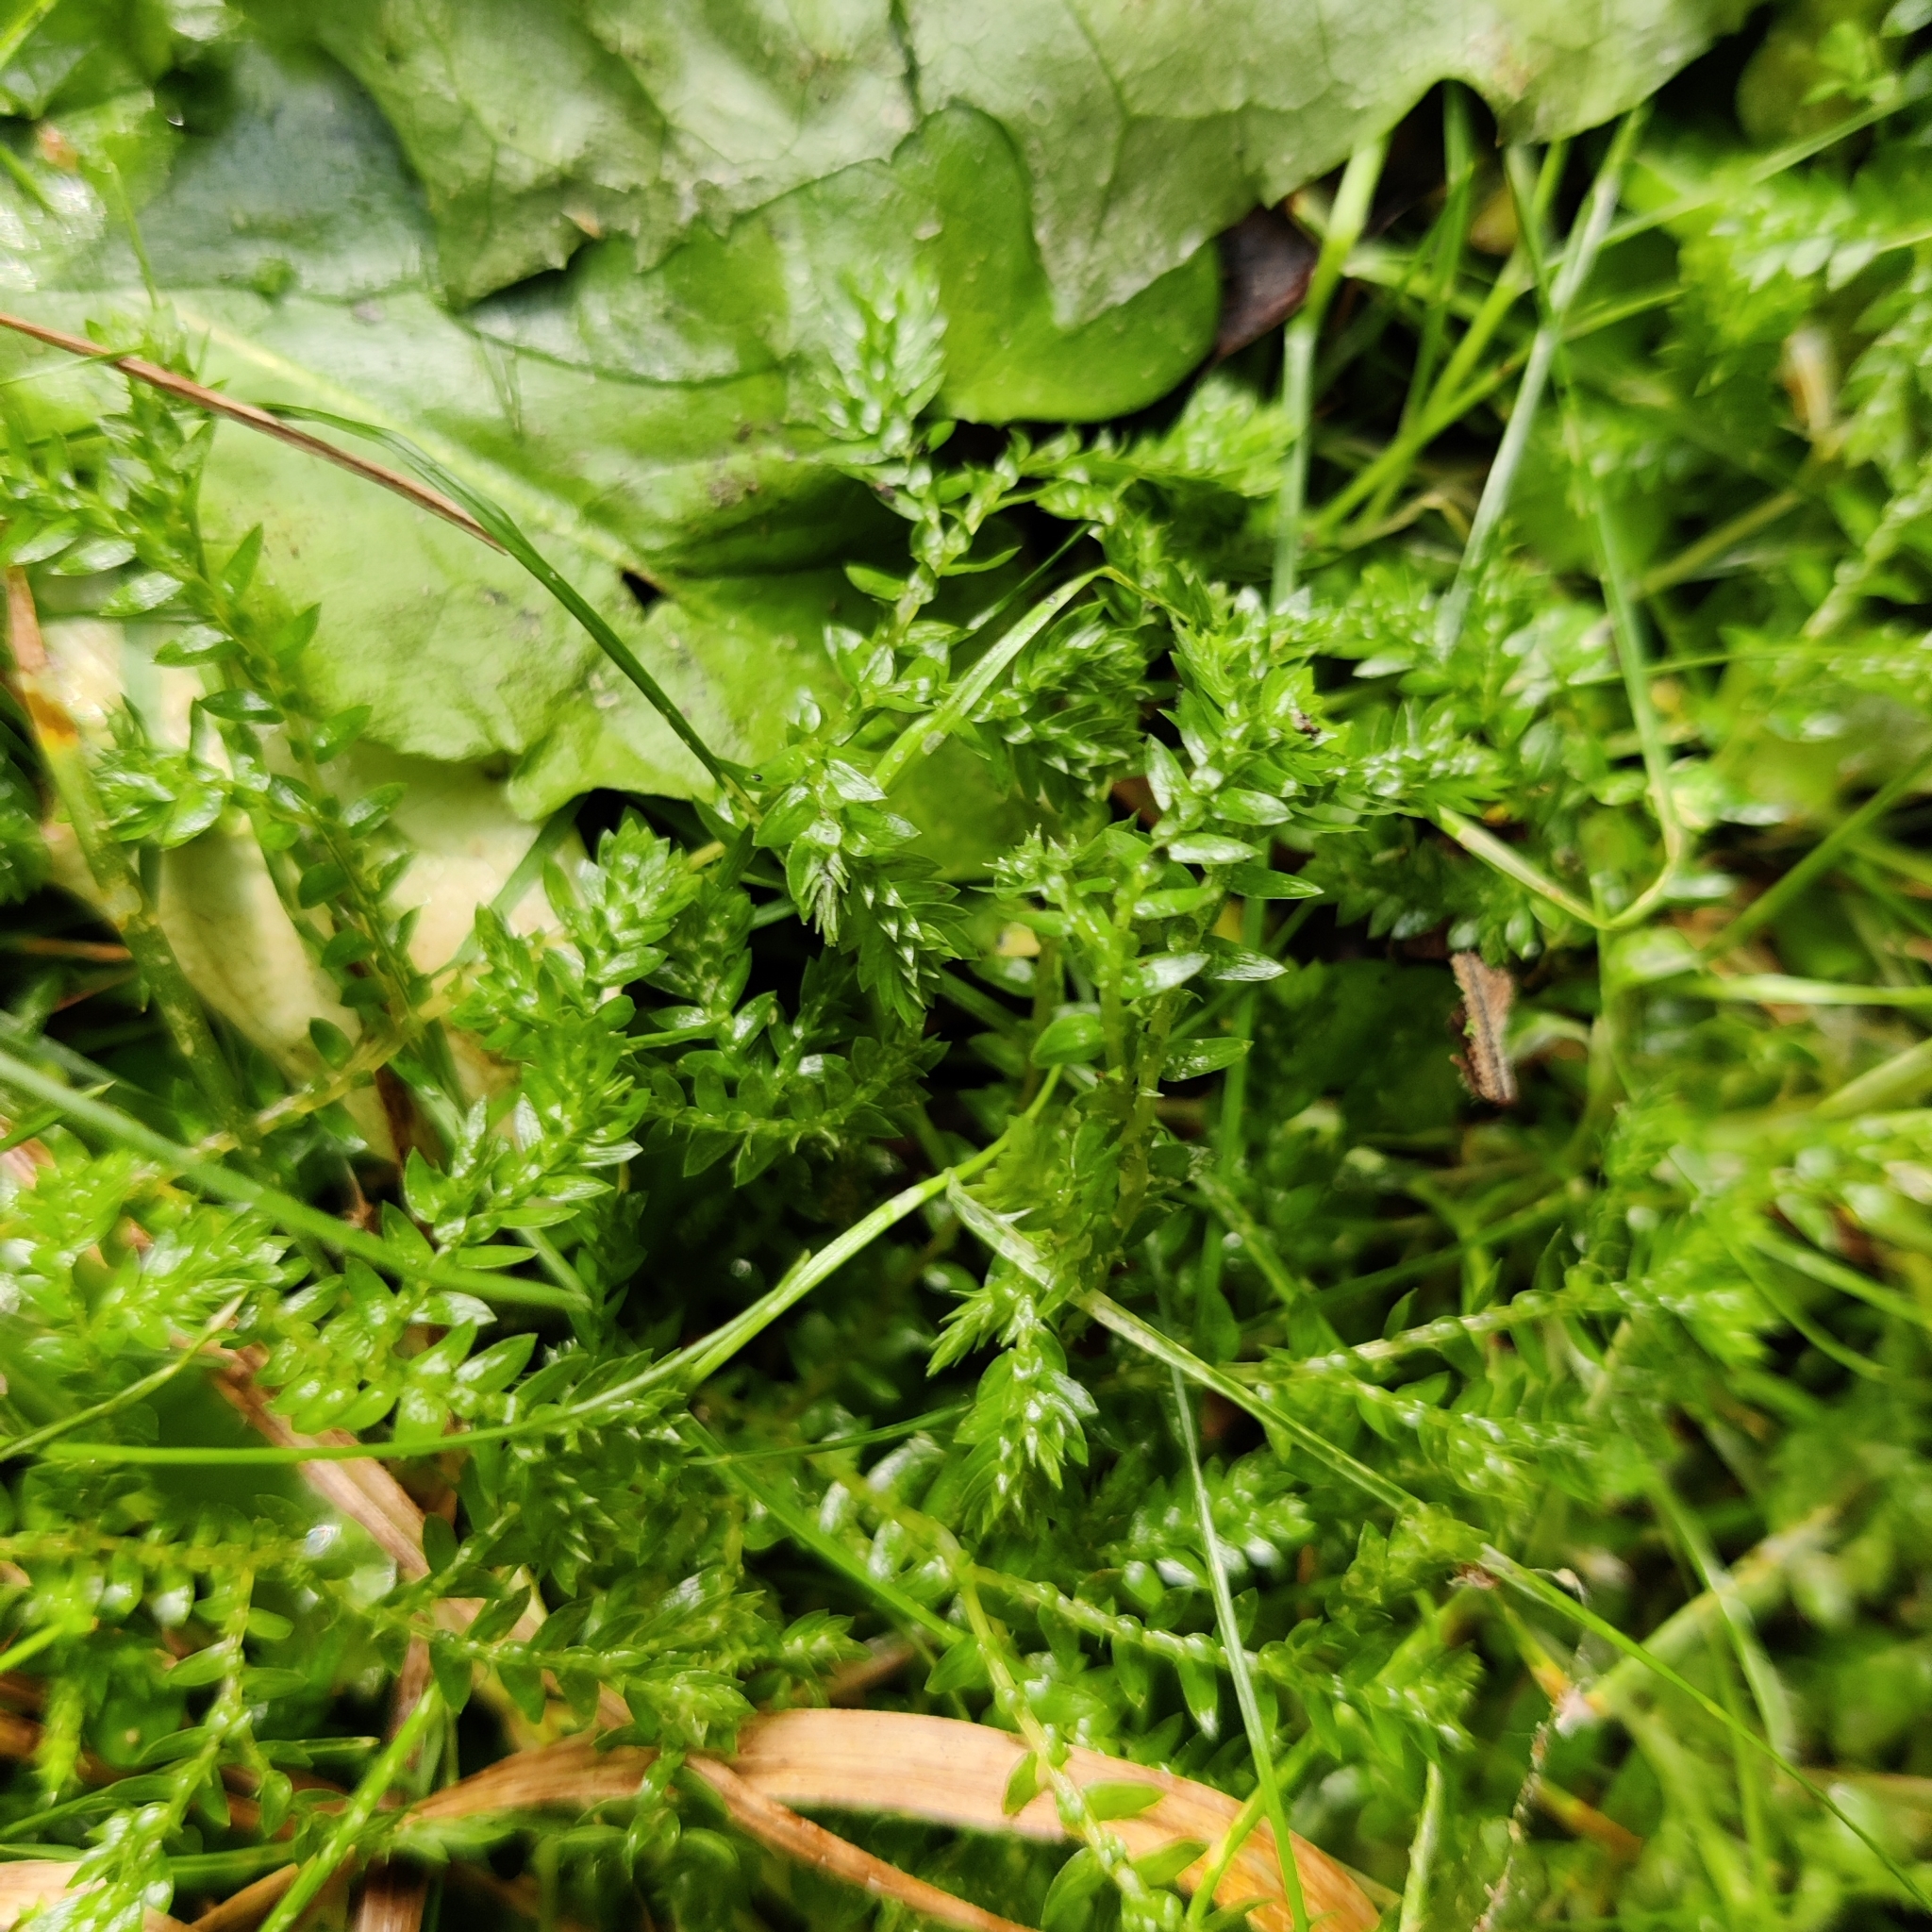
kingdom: Plantae
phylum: Tracheophyta
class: Lycopodiopsida
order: Selaginellales
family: Selaginellaceae
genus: Selaginella
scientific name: Selaginella kraussiana
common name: Krauss' spikemoss
